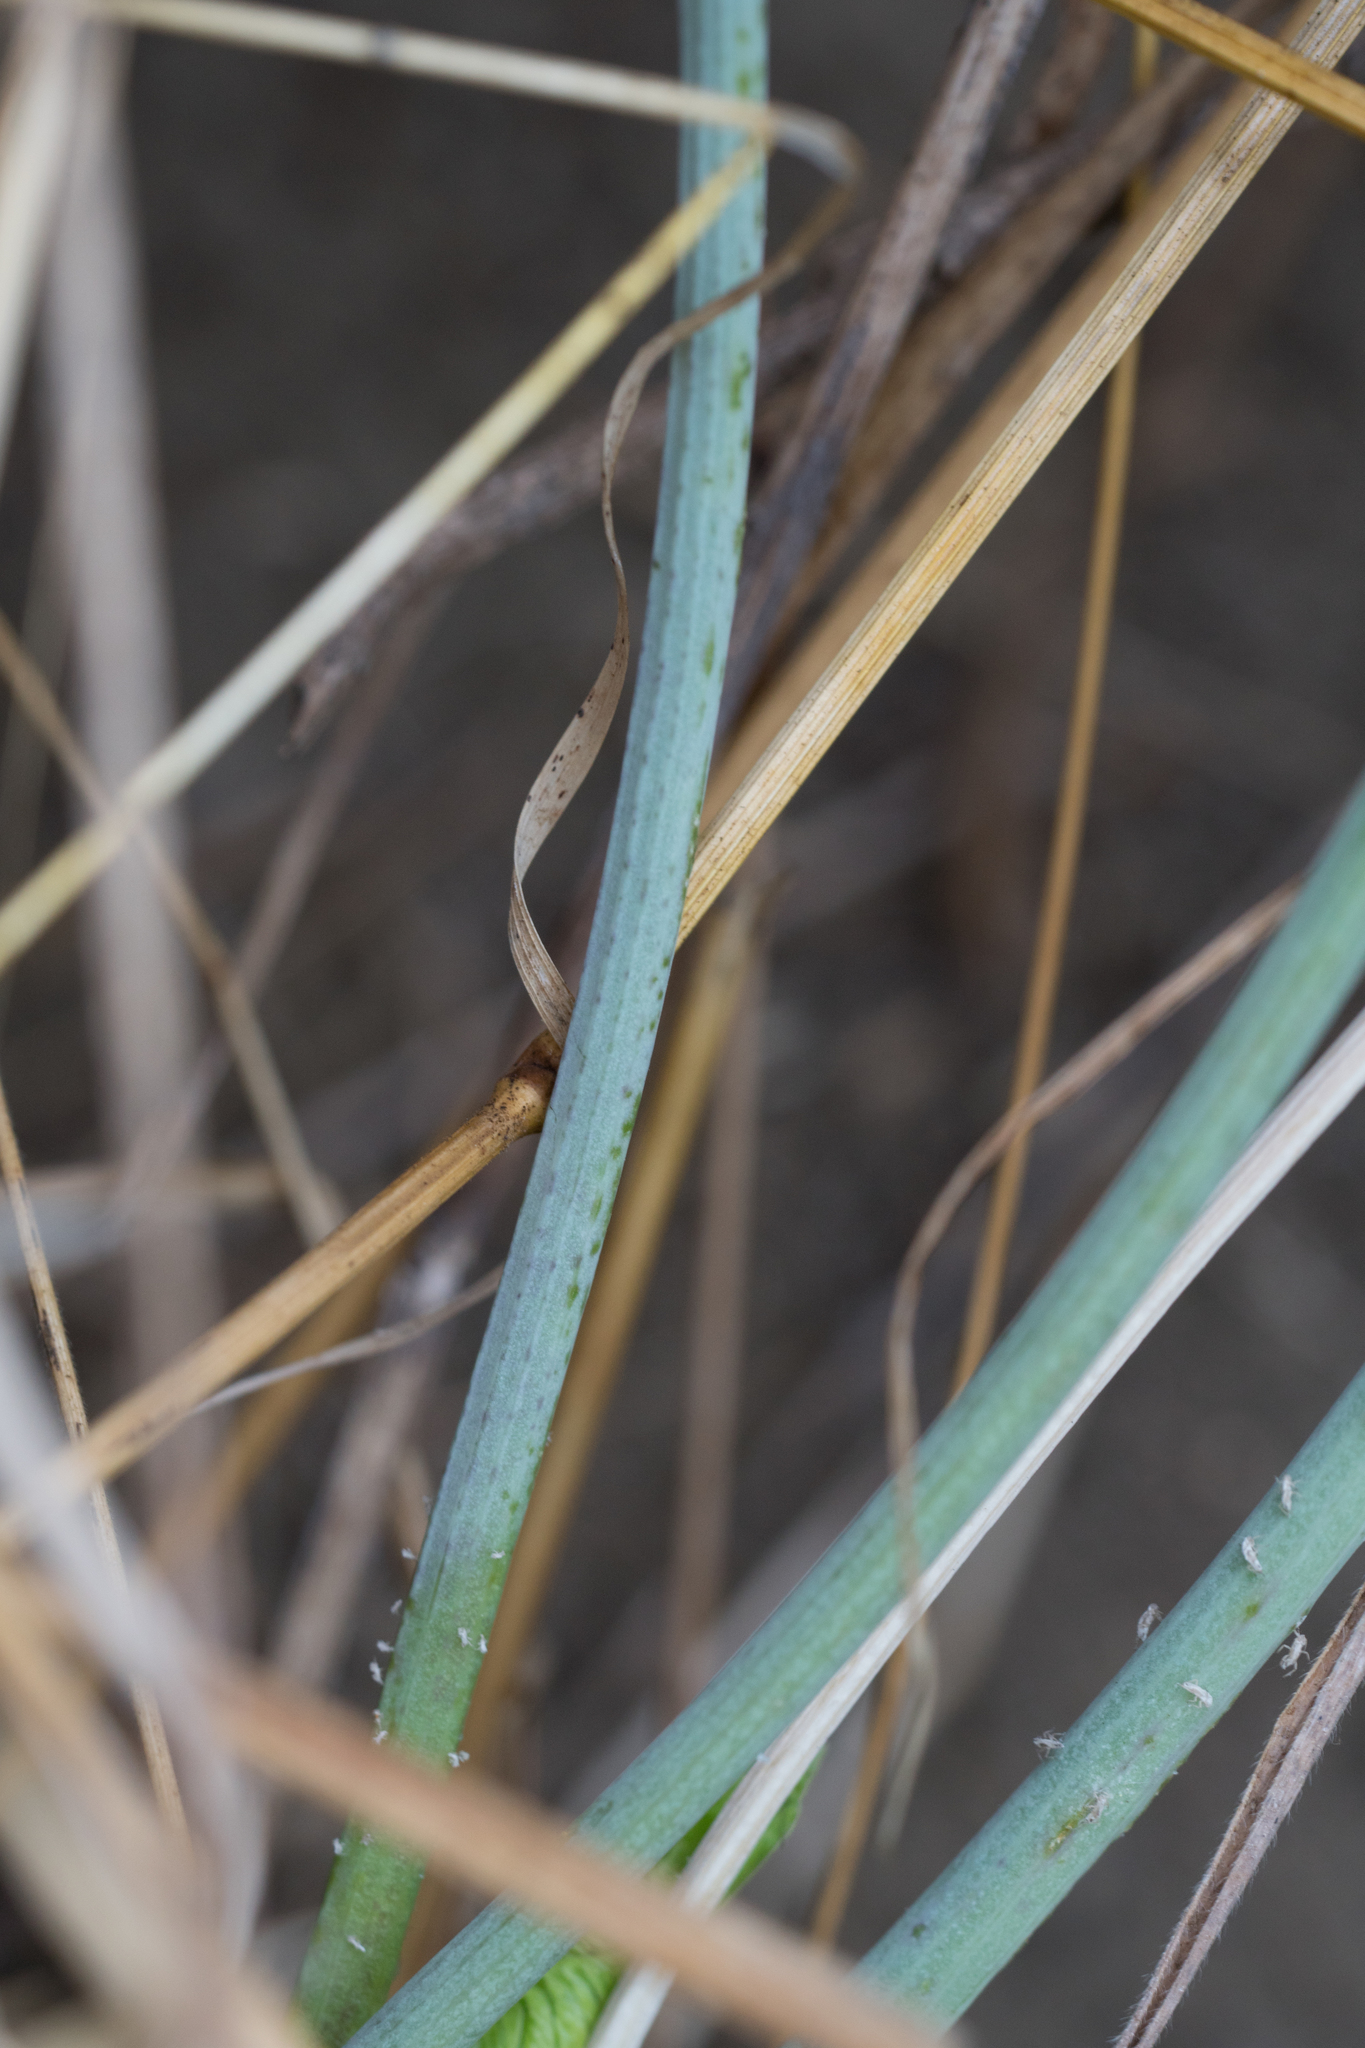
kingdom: Plantae
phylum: Tracheophyta
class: Magnoliopsida
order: Apiales
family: Apiaceae
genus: Conium
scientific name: Conium maculatum
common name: Hemlock
